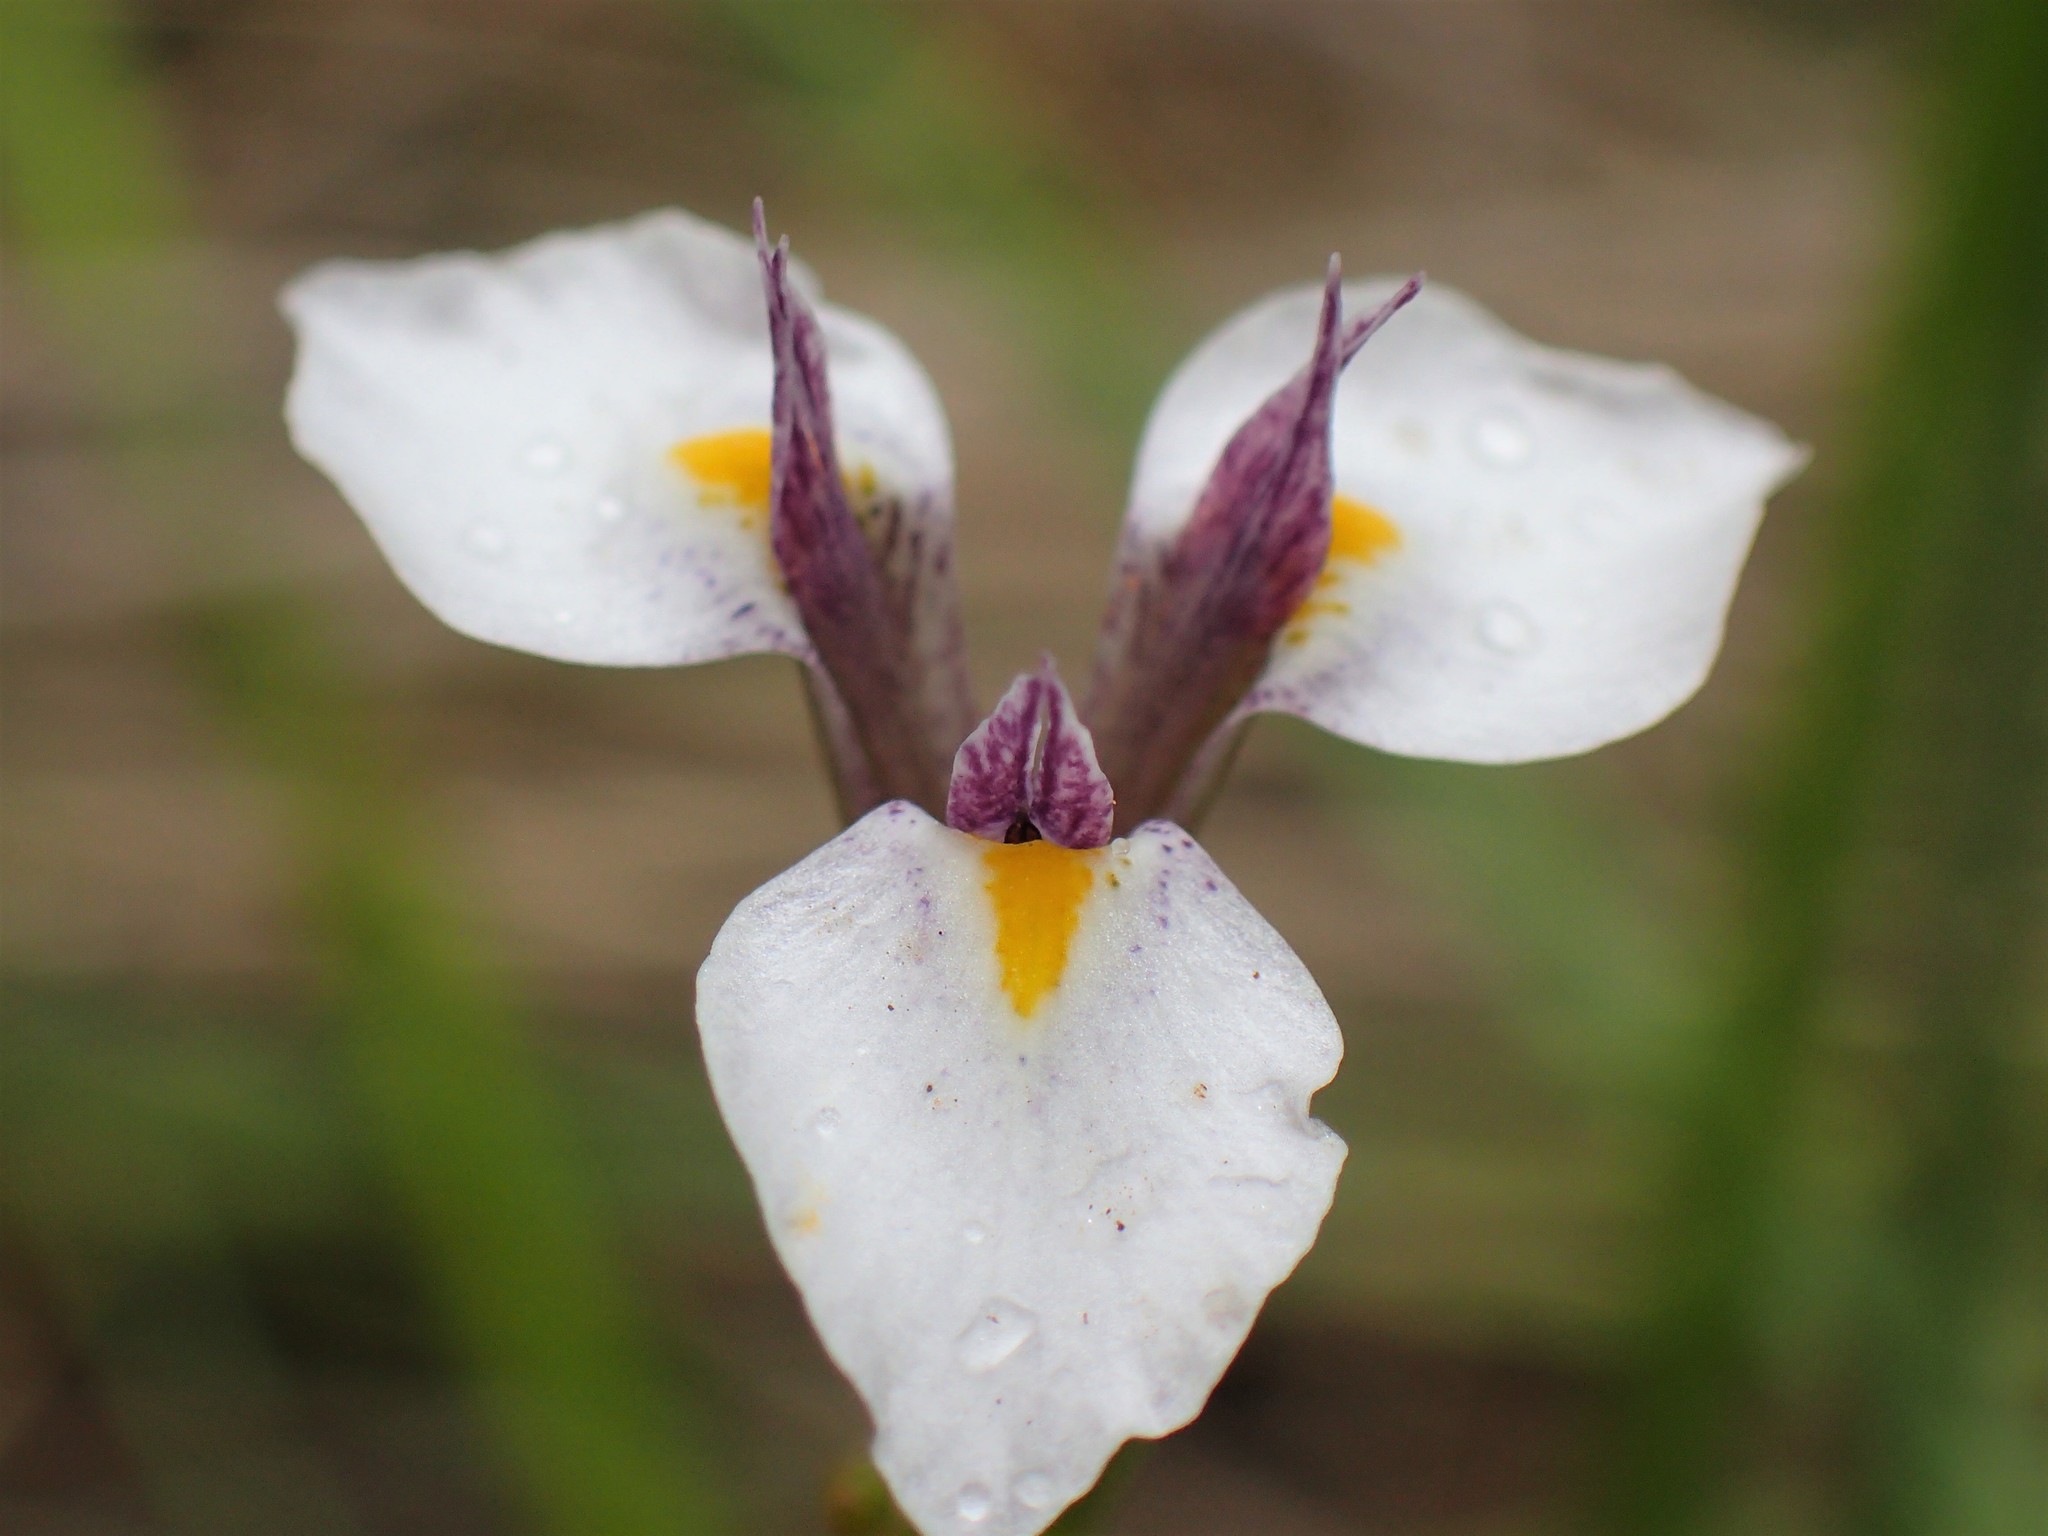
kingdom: Plantae
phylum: Tracheophyta
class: Liliopsida
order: Asparagales
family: Iridaceae
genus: Moraea
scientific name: Moraea modesta
